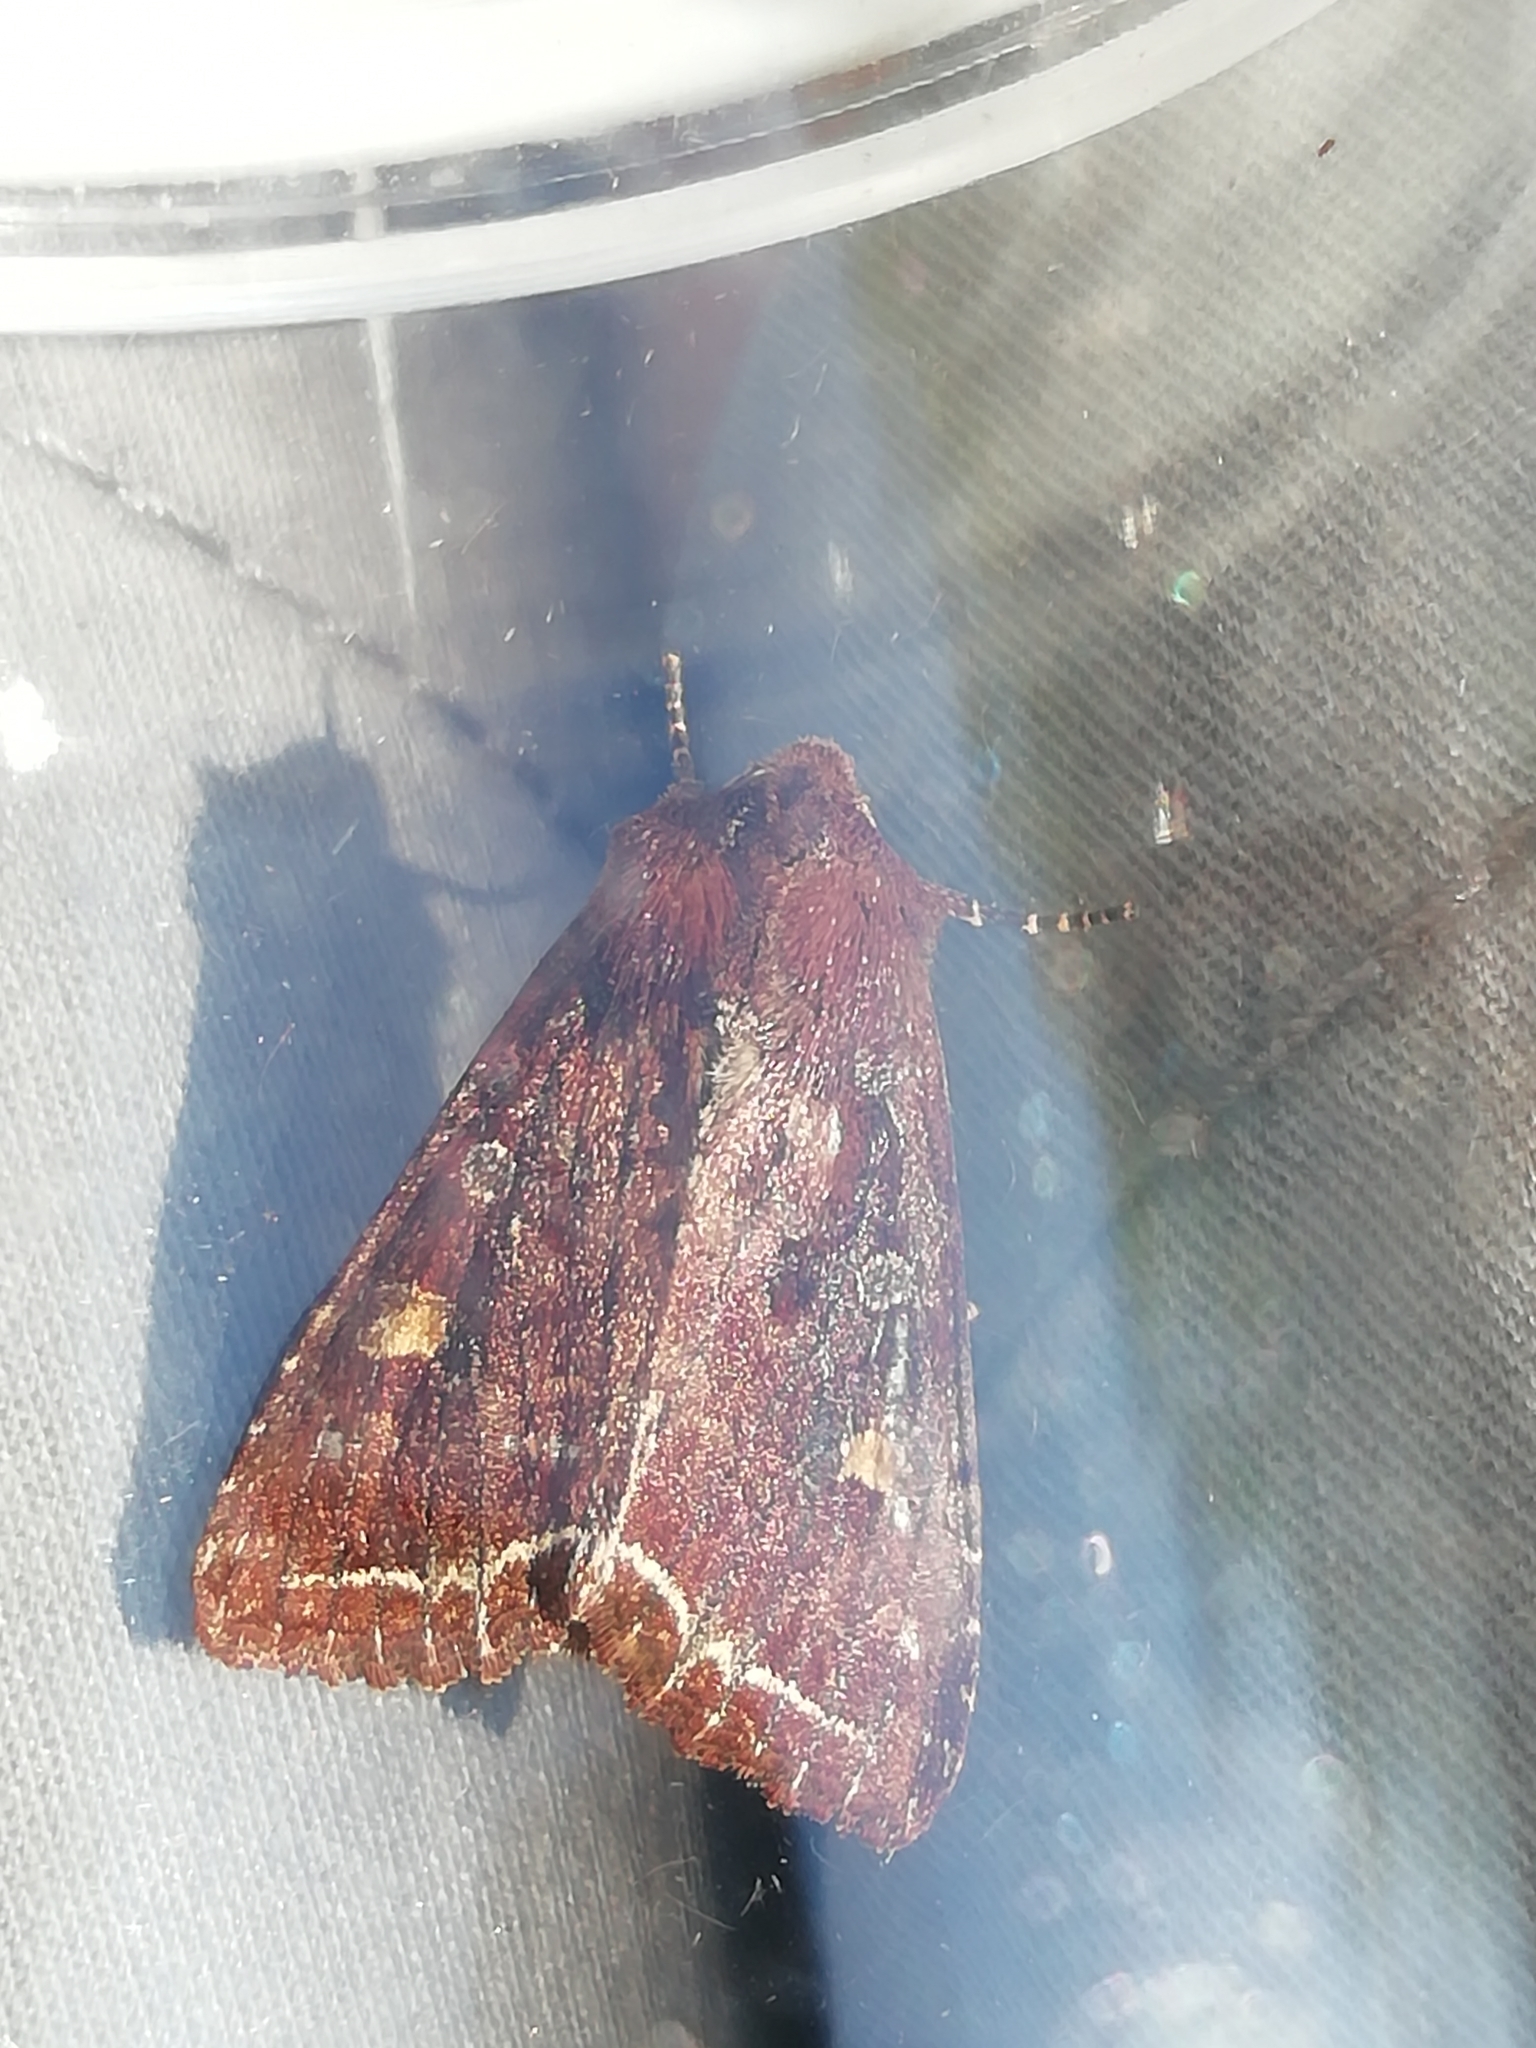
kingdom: Animalia
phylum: Arthropoda
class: Insecta
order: Lepidoptera
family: Noctuidae
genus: Lacanobia
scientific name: Lacanobia oleracea
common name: Bright-line brown-eye
